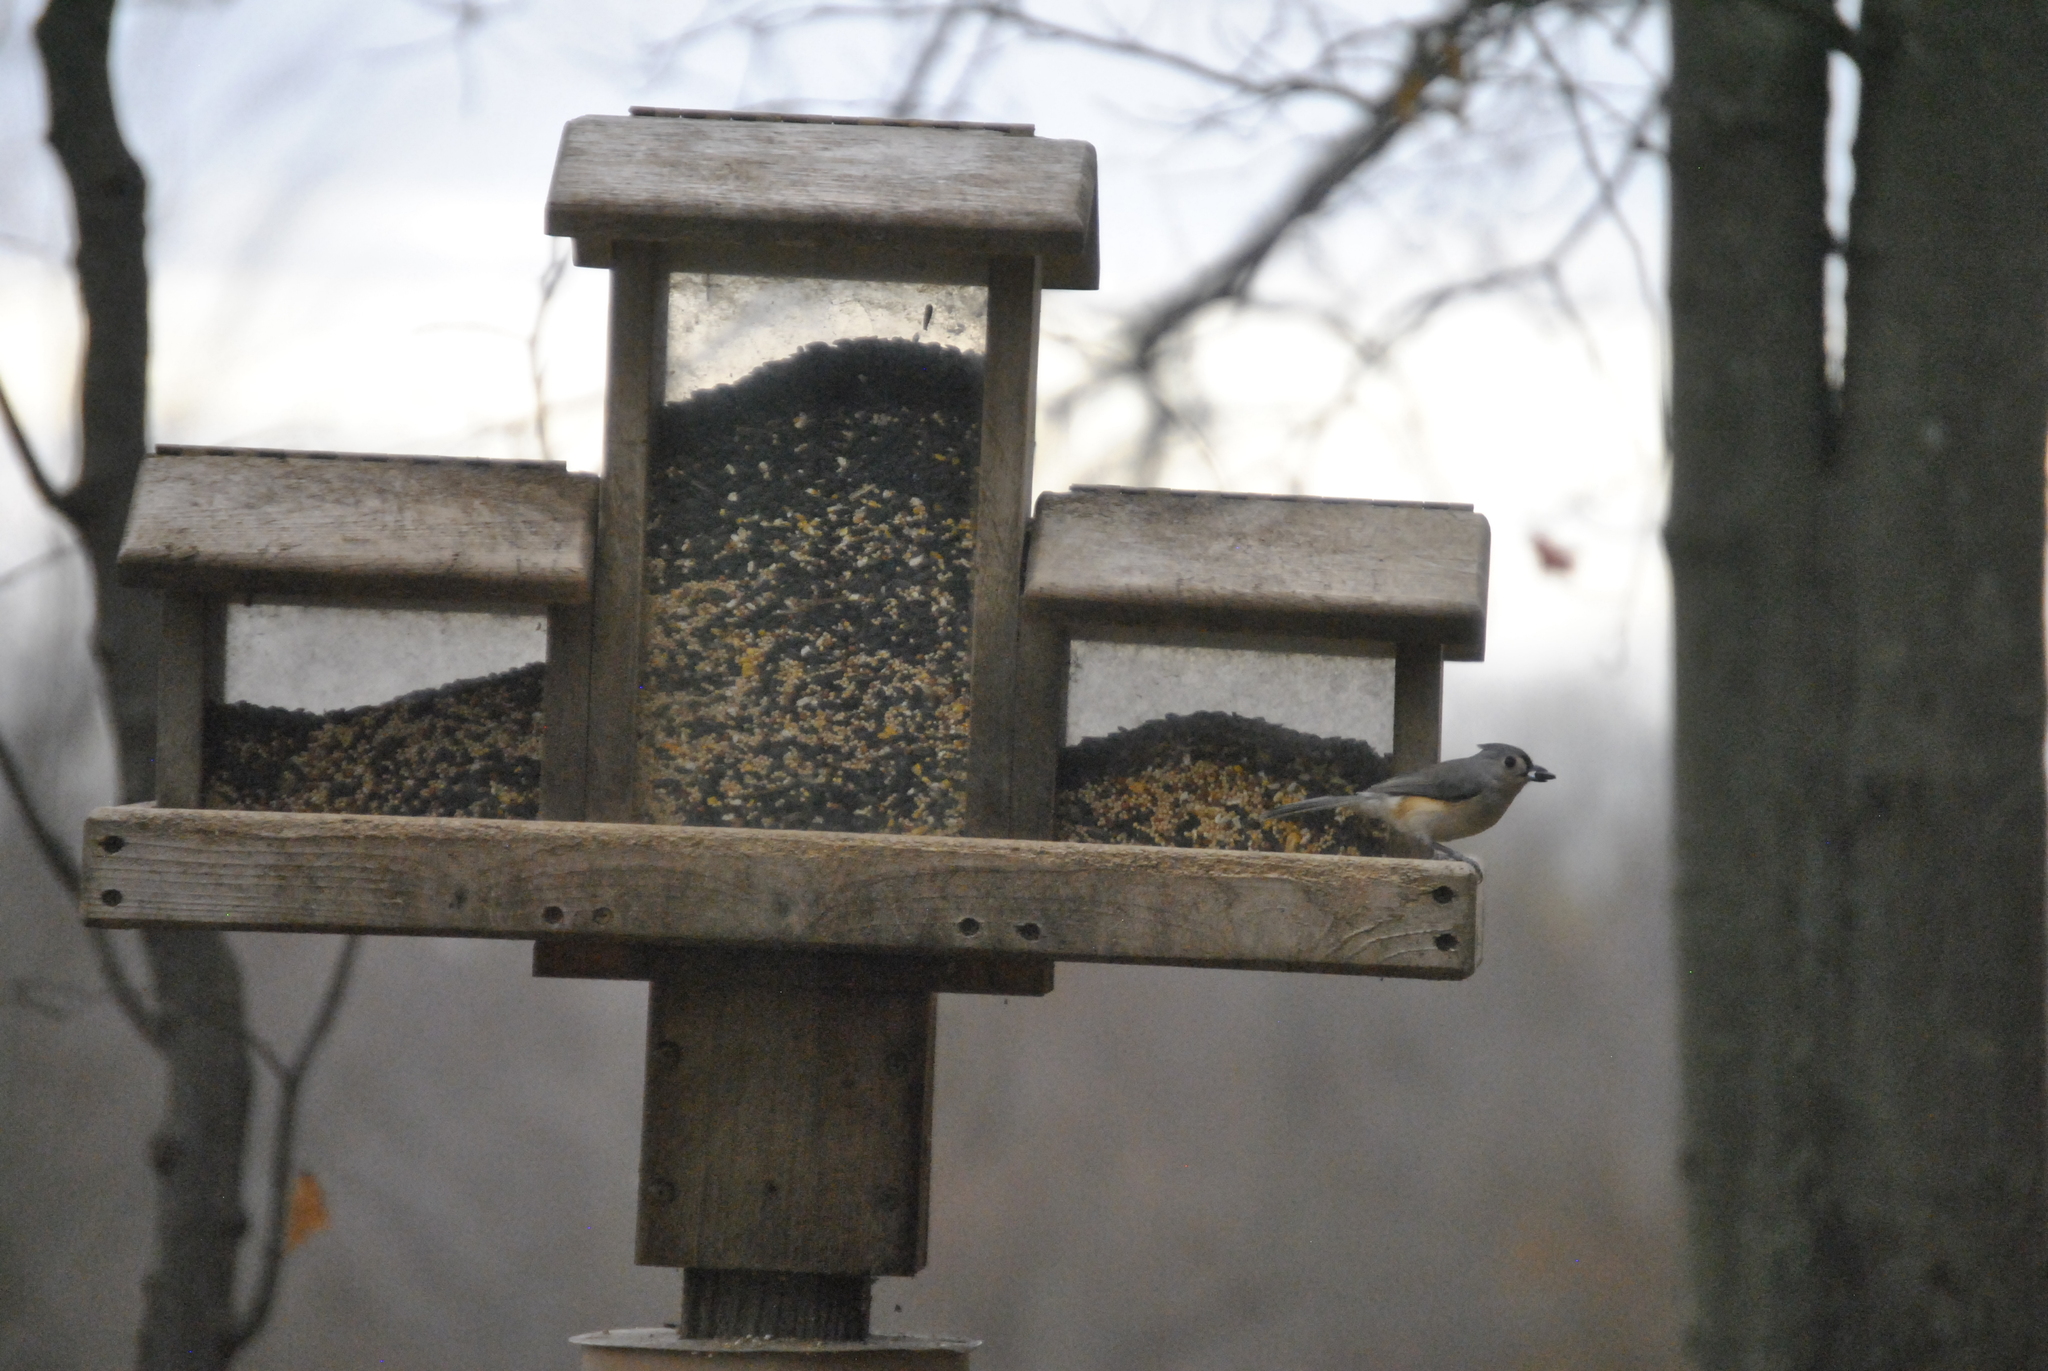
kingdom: Animalia
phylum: Chordata
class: Aves
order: Passeriformes
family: Paridae
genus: Baeolophus
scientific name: Baeolophus bicolor
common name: Tufted titmouse
